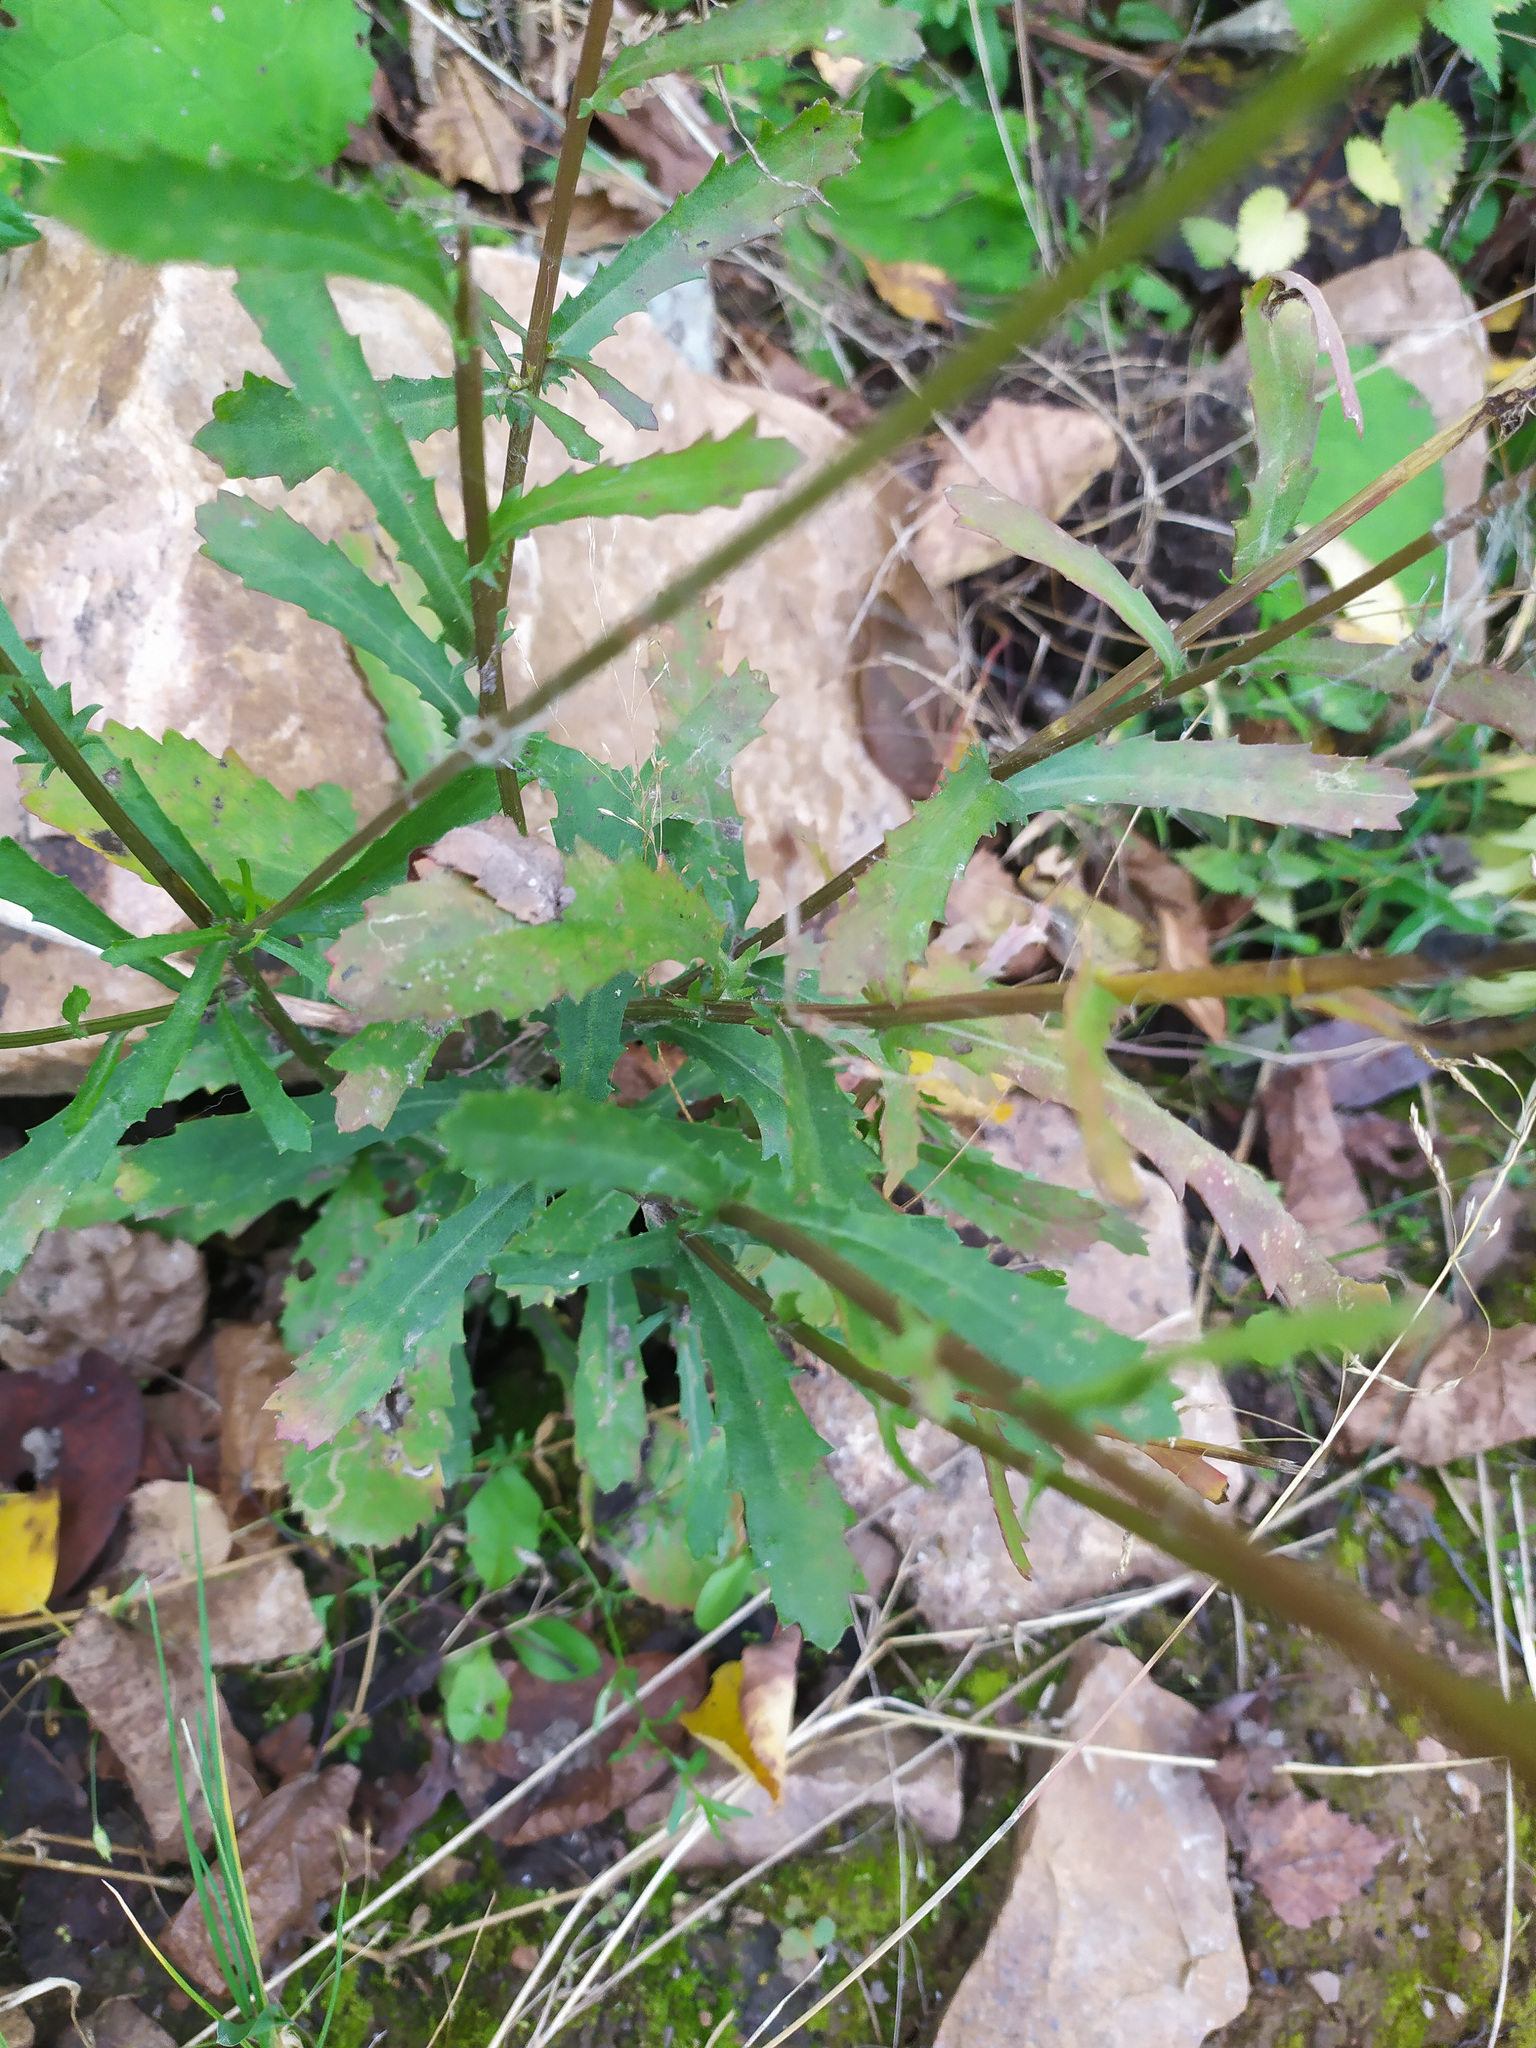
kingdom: Plantae
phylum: Tracheophyta
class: Magnoliopsida
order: Asterales
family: Asteraceae
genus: Leucanthemum
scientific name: Leucanthemum vulgare
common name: Oxeye daisy
